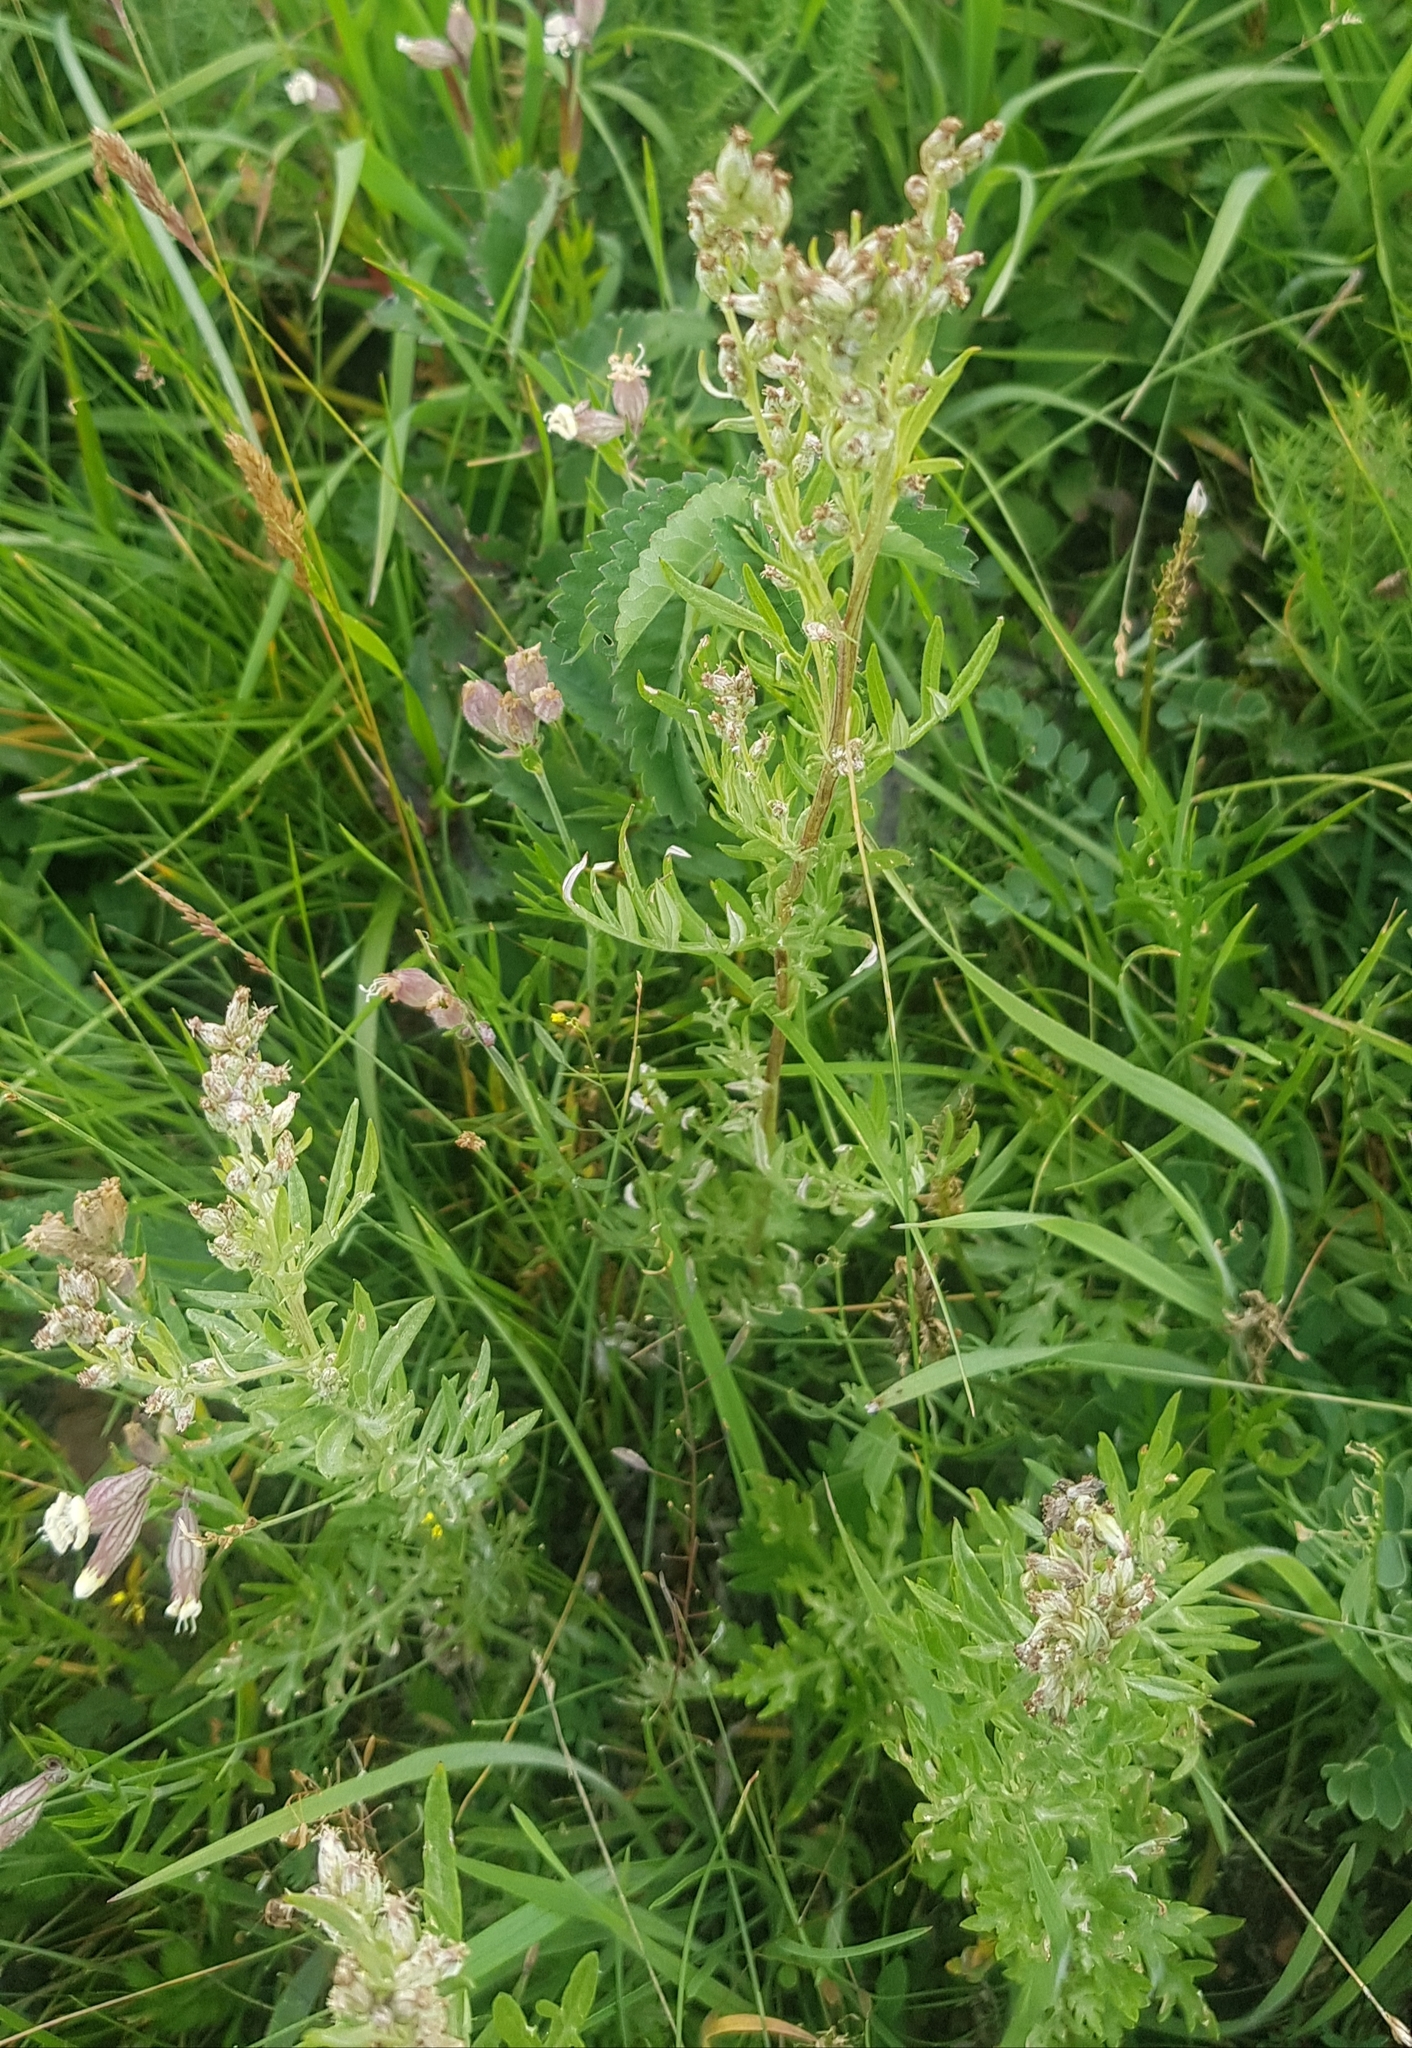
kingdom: Plantae
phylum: Tracheophyta
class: Magnoliopsida
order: Asterales
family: Asteraceae
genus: Artemisia
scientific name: Artemisia vulgaris
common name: Mugwort
